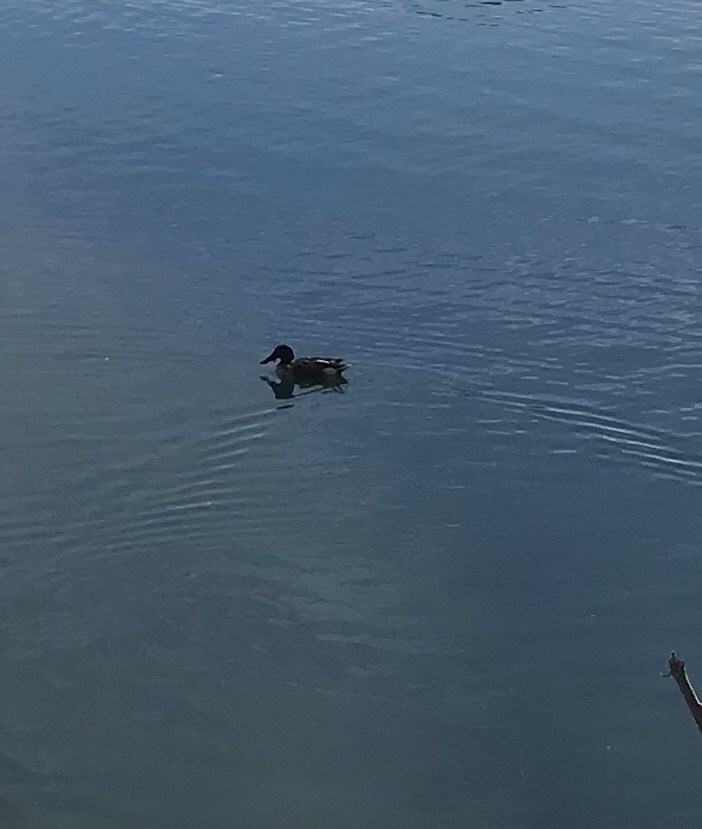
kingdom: Animalia
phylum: Chordata
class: Aves
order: Anseriformes
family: Anatidae
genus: Spatula
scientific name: Spatula clypeata
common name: Northern shoveler
